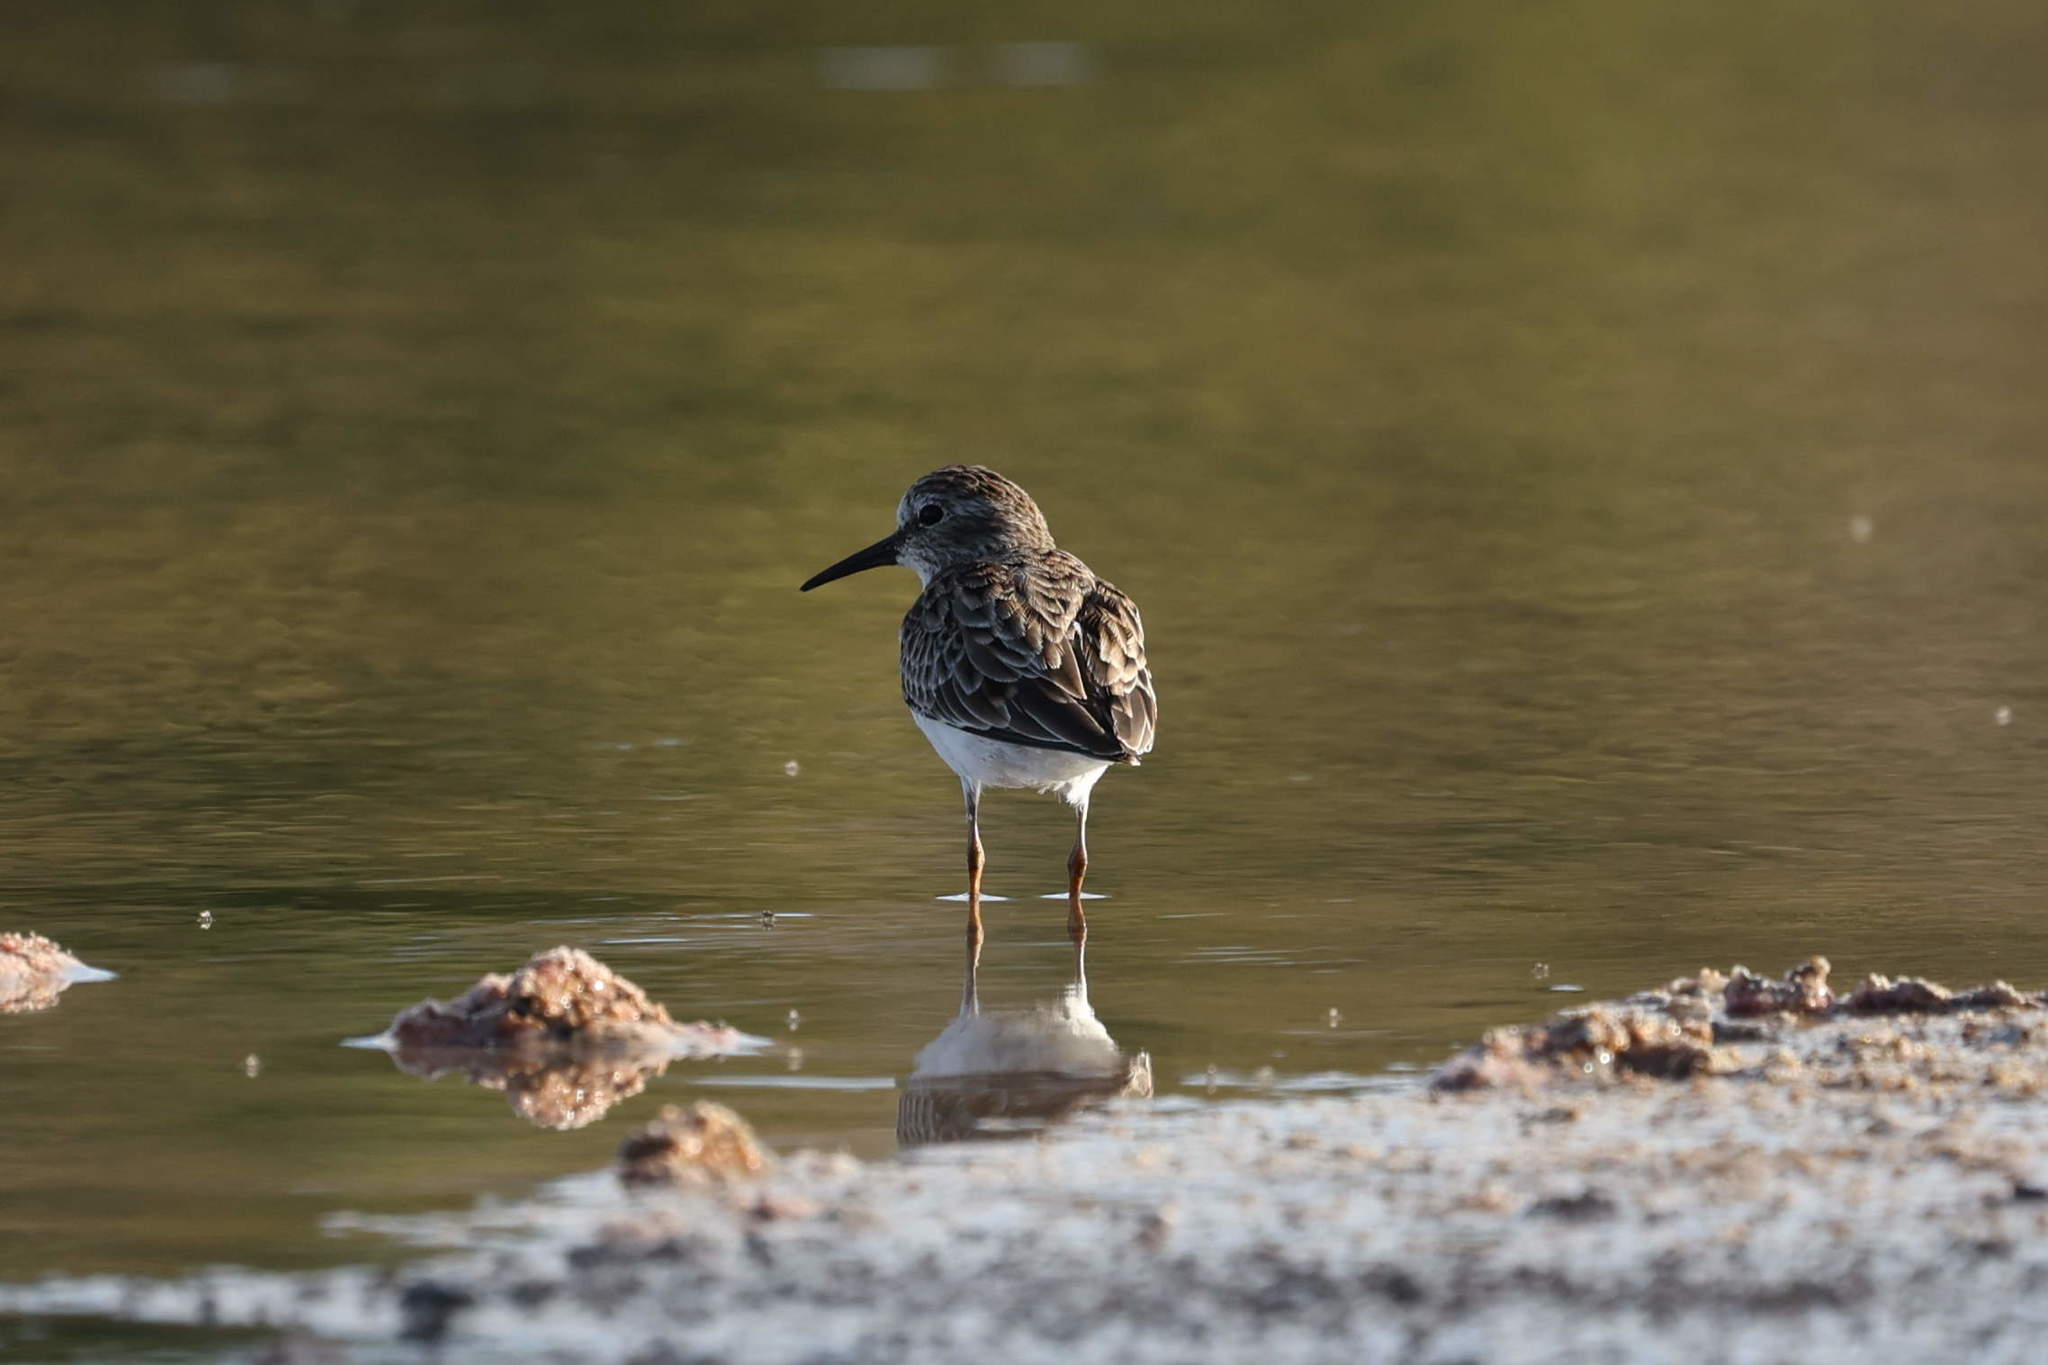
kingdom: Animalia
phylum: Chordata
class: Aves
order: Charadriiformes
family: Scolopacidae
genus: Calidris
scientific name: Calidris minutilla
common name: Least sandpiper
